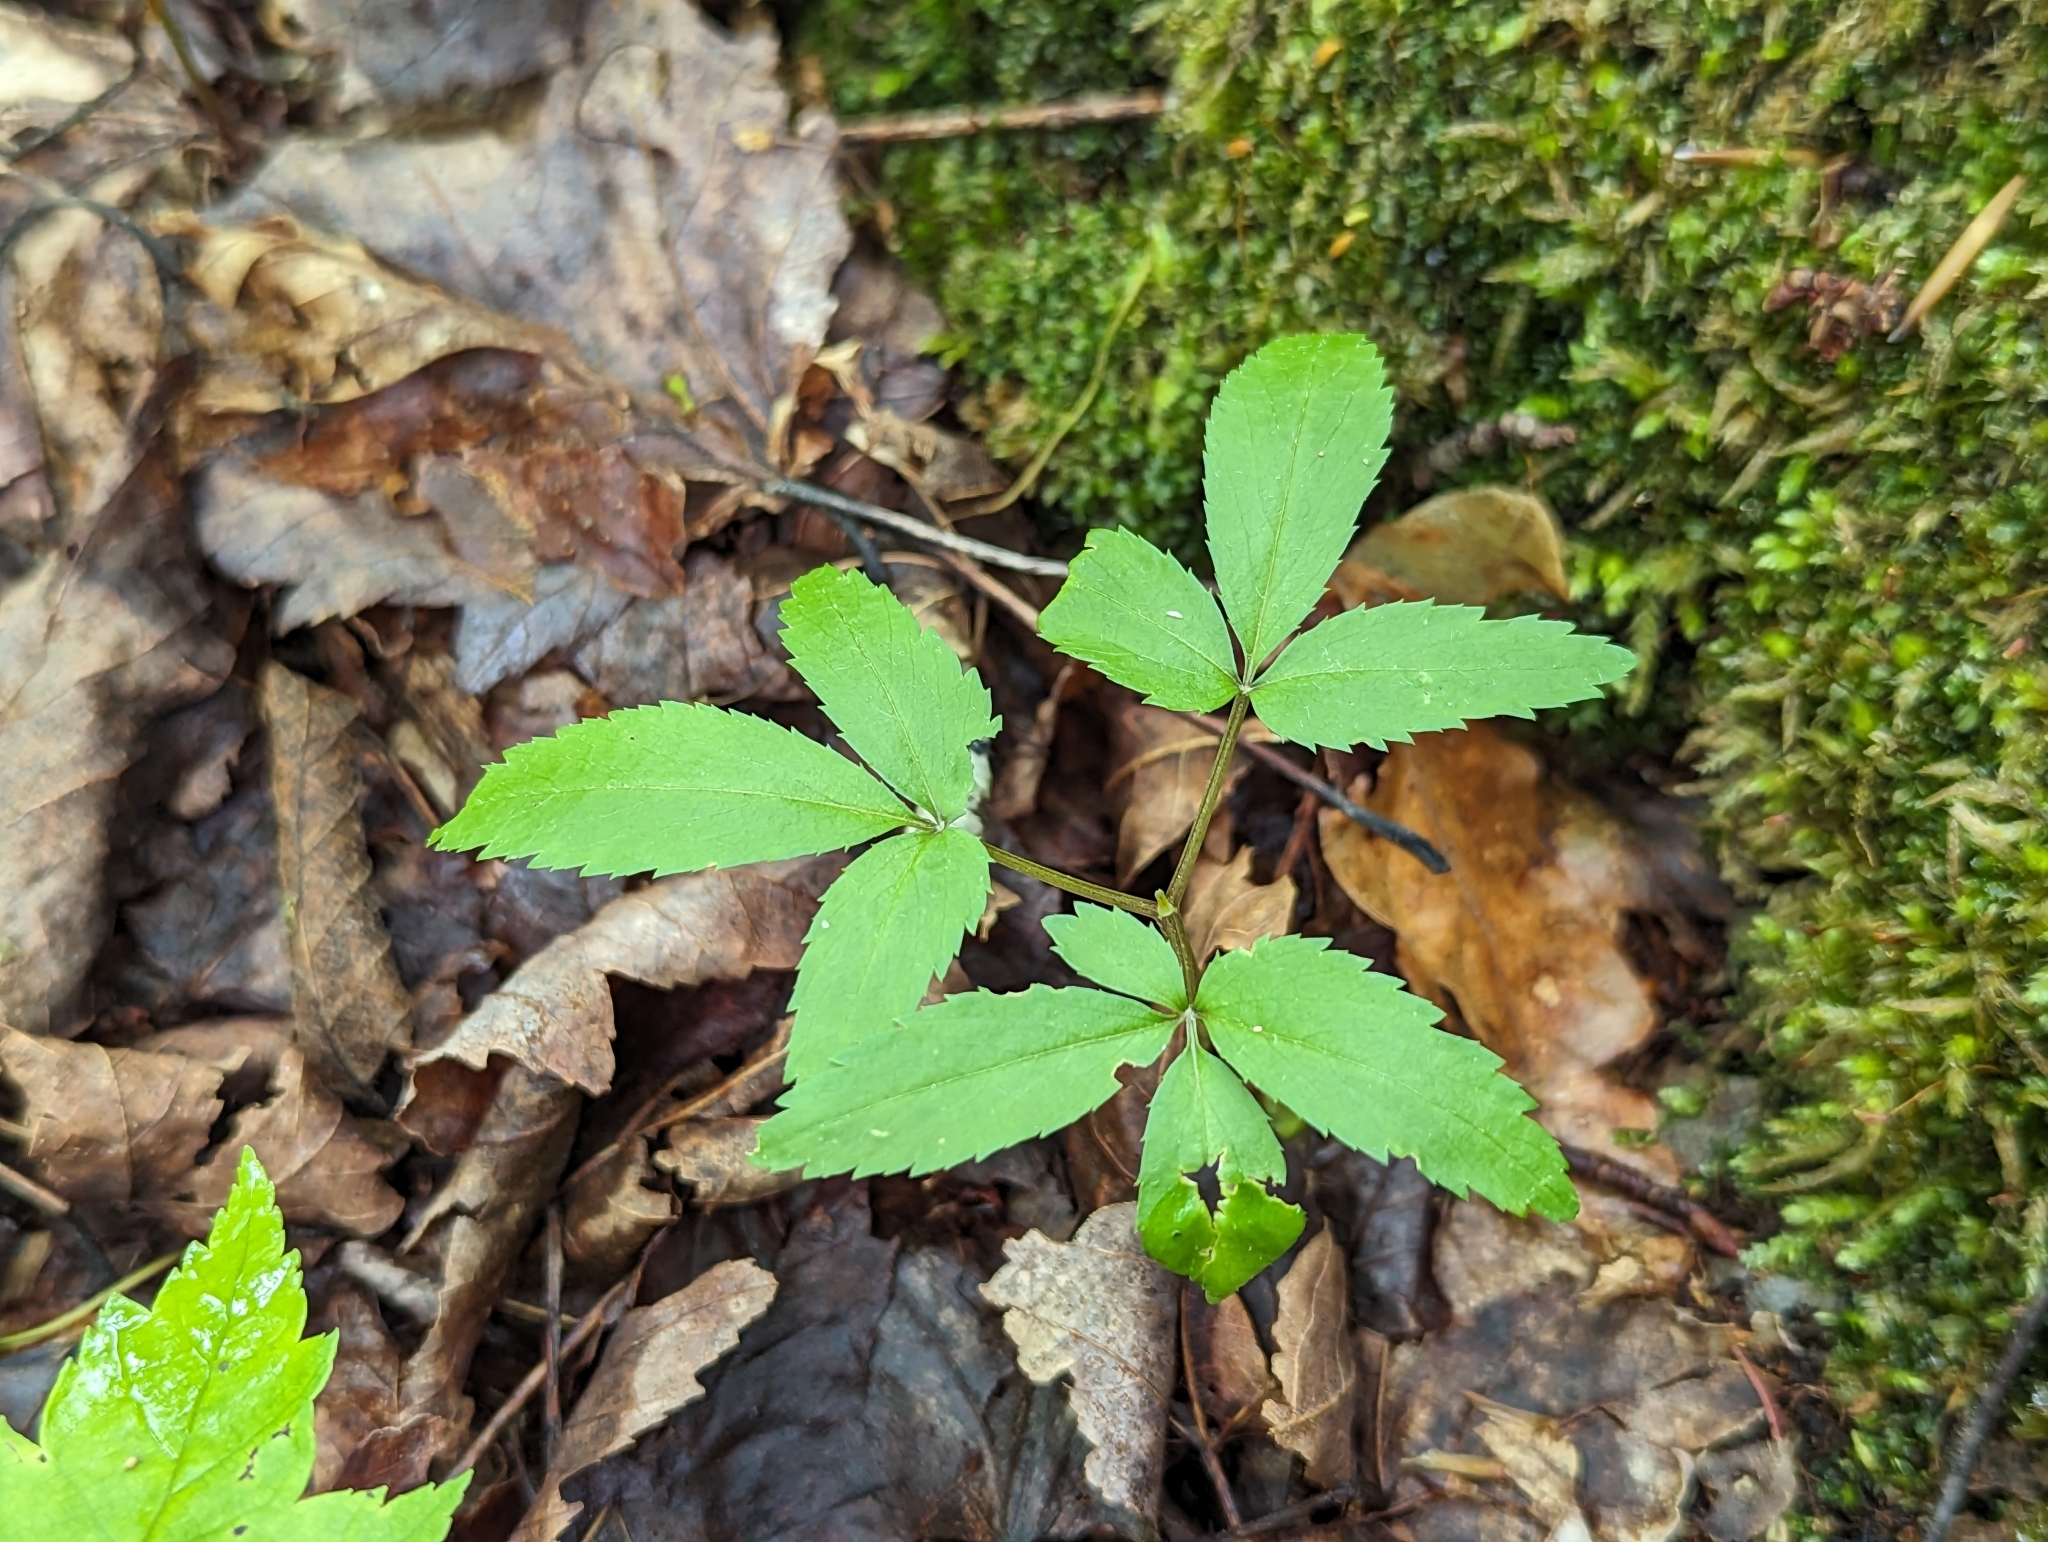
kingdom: Plantae
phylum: Tracheophyta
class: Magnoliopsida
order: Apiales
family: Araliaceae
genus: Panax
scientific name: Panax trifolius
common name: Dwarf ginseng
